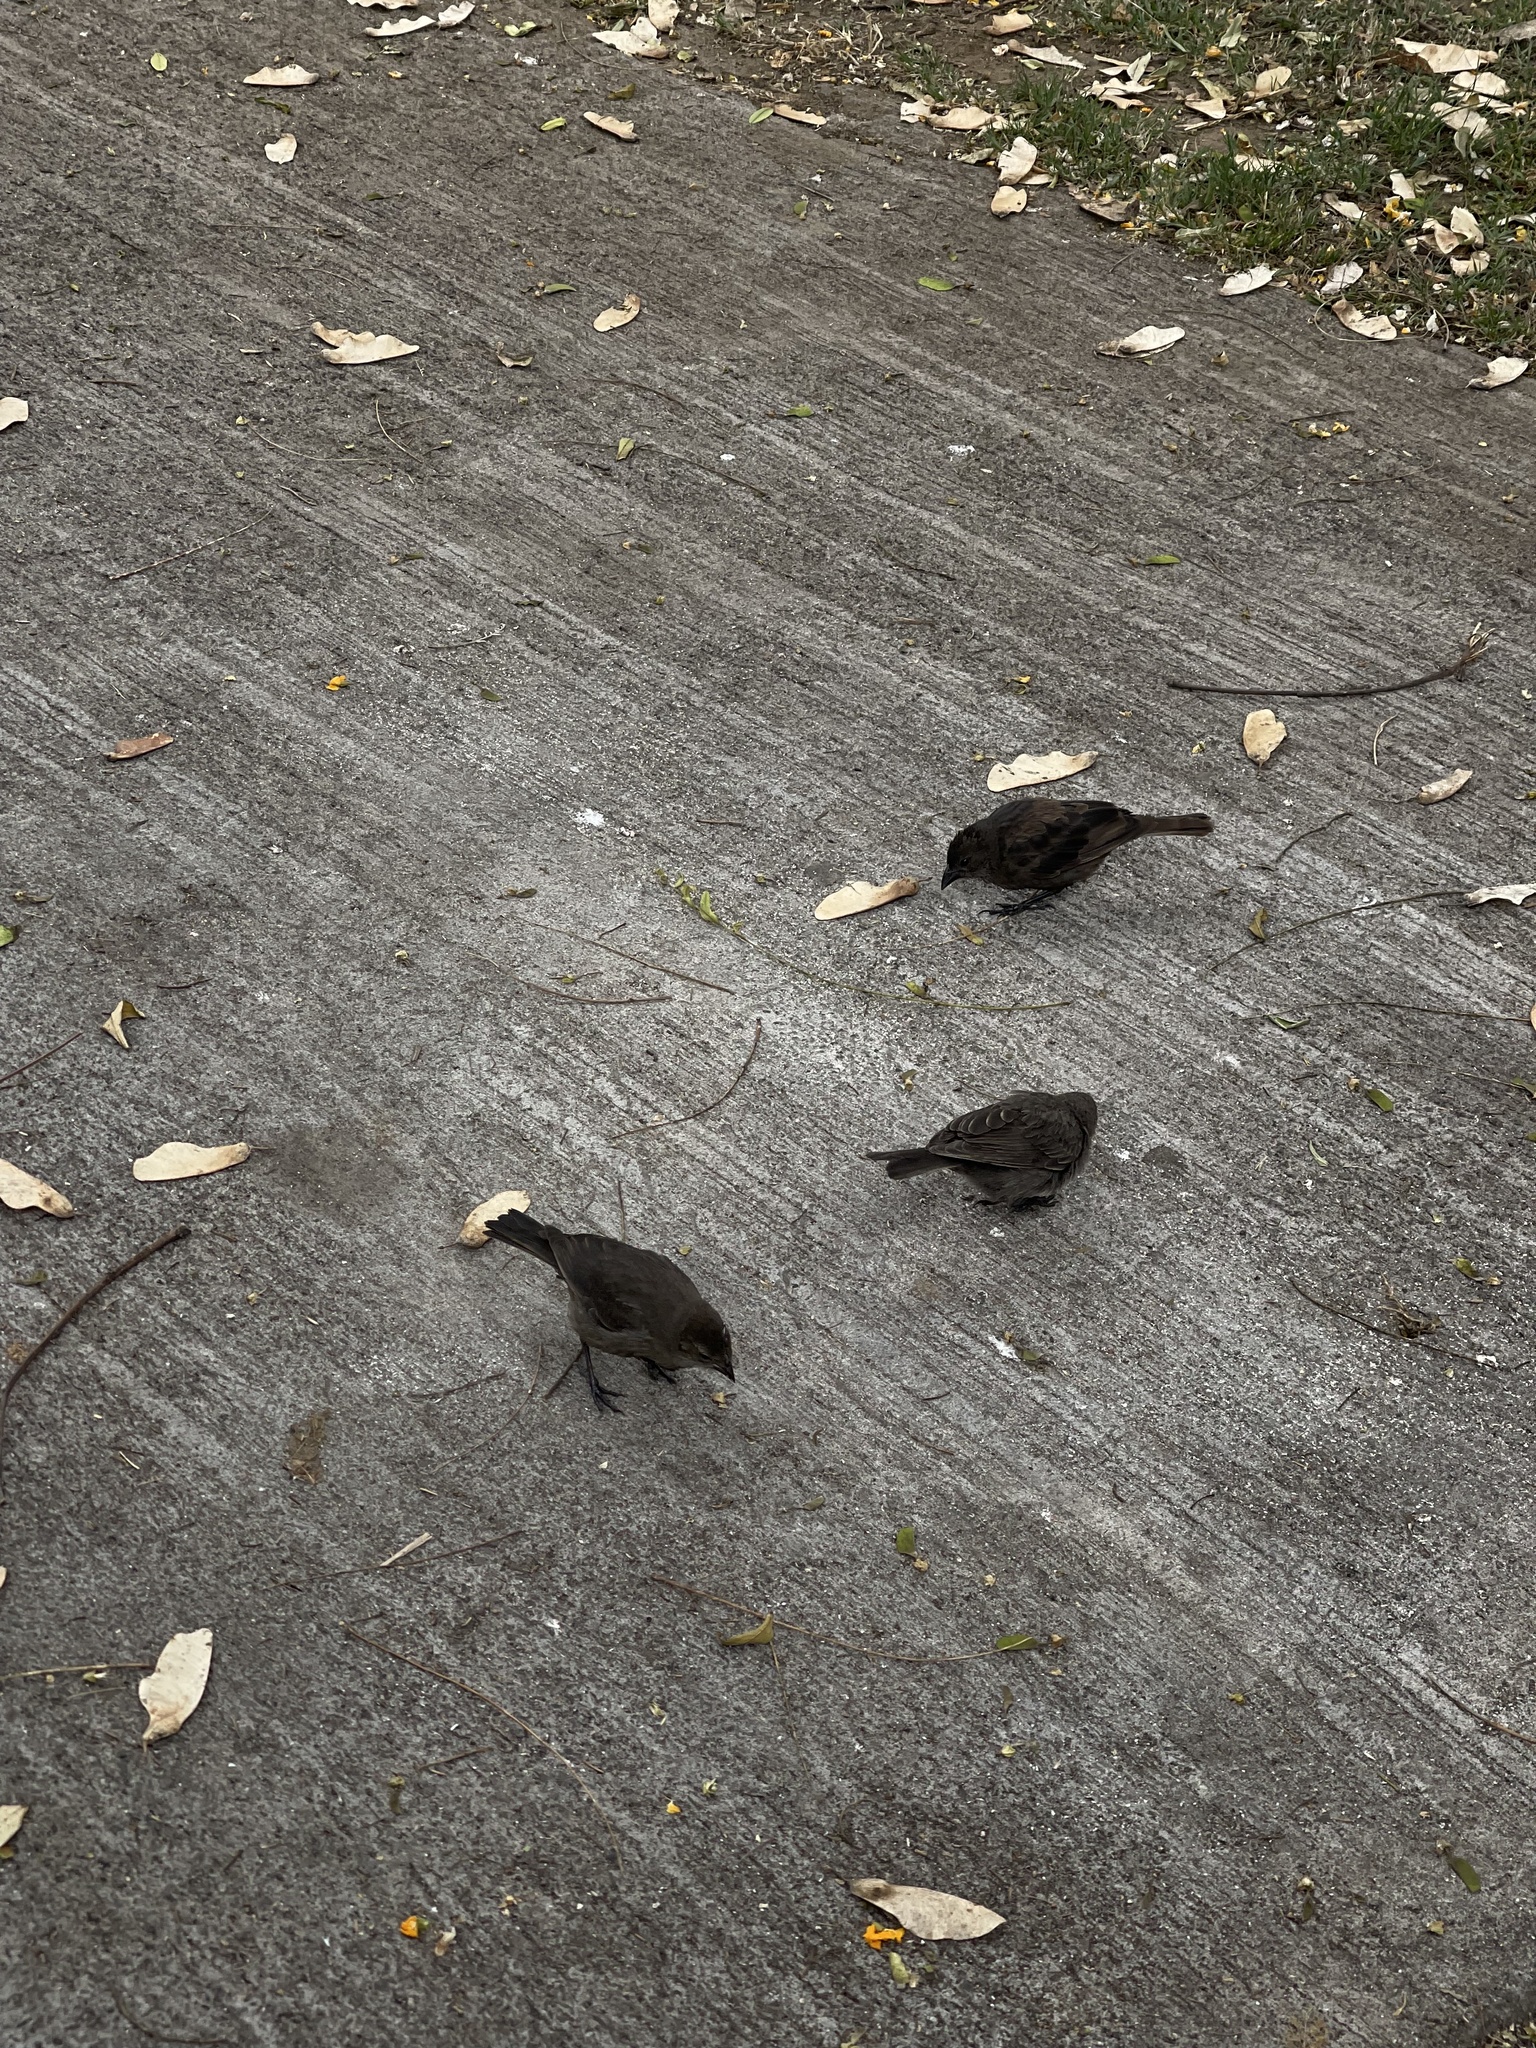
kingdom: Animalia
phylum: Chordata
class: Aves
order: Passeriformes
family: Icteridae
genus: Molothrus
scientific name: Molothrus bonariensis
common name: Shiny cowbird
